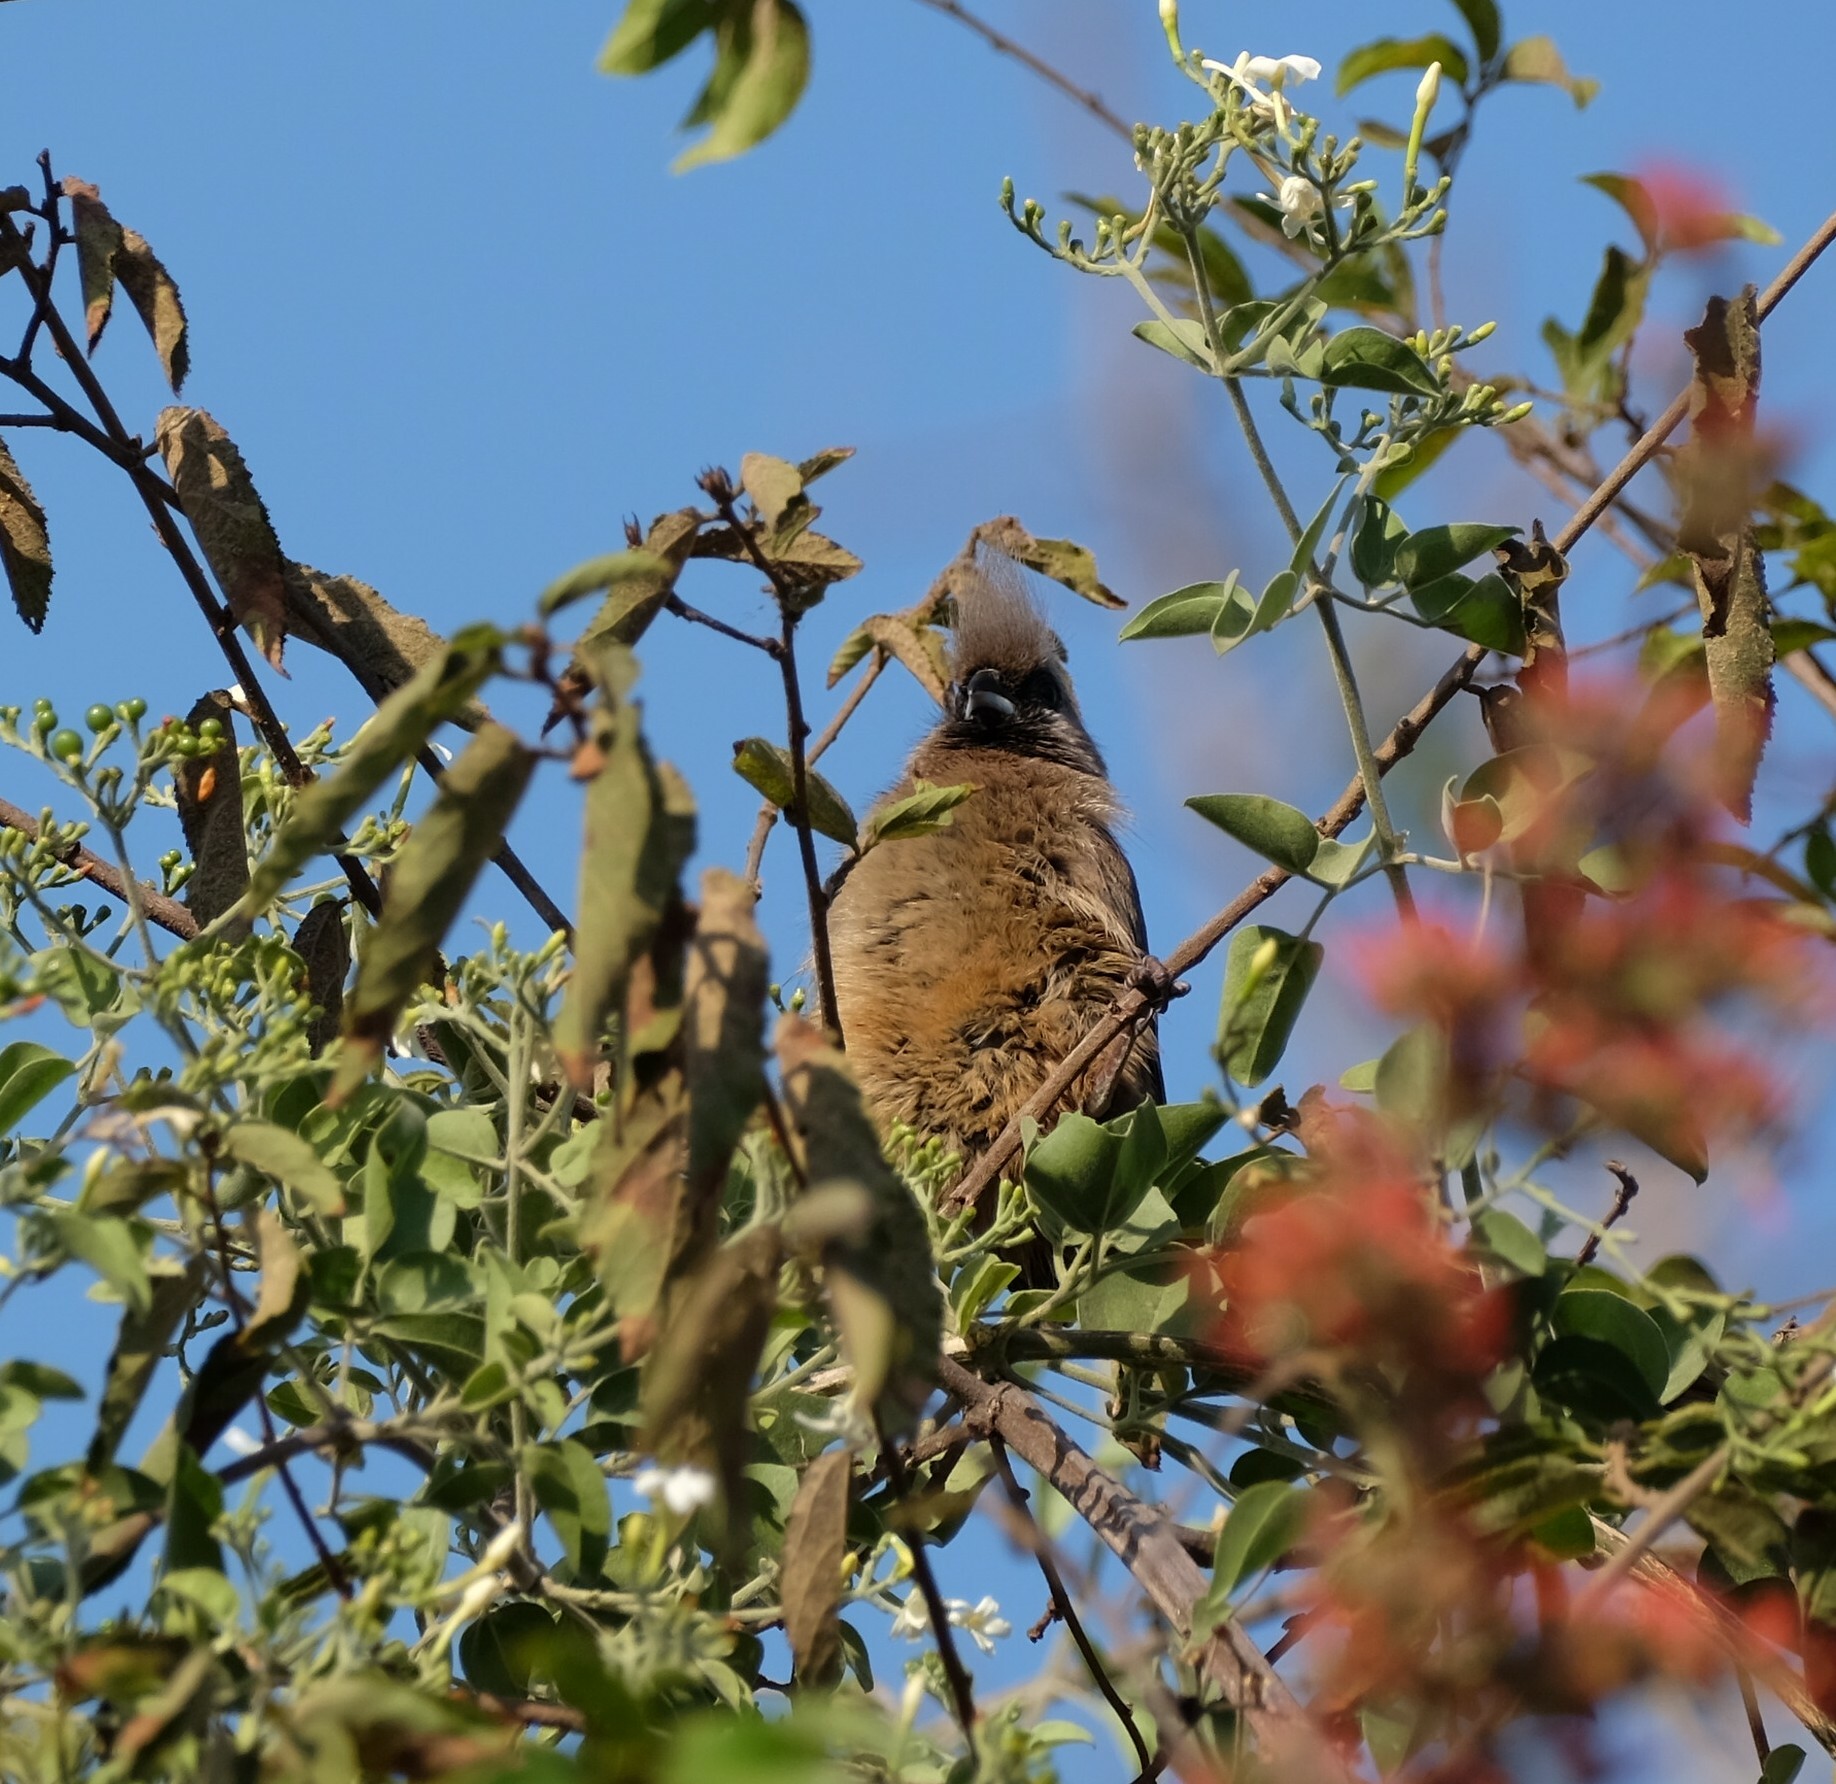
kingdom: Animalia
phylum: Chordata
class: Aves
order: Coliiformes
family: Coliidae
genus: Colius
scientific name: Colius striatus
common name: Speckled mousebird
